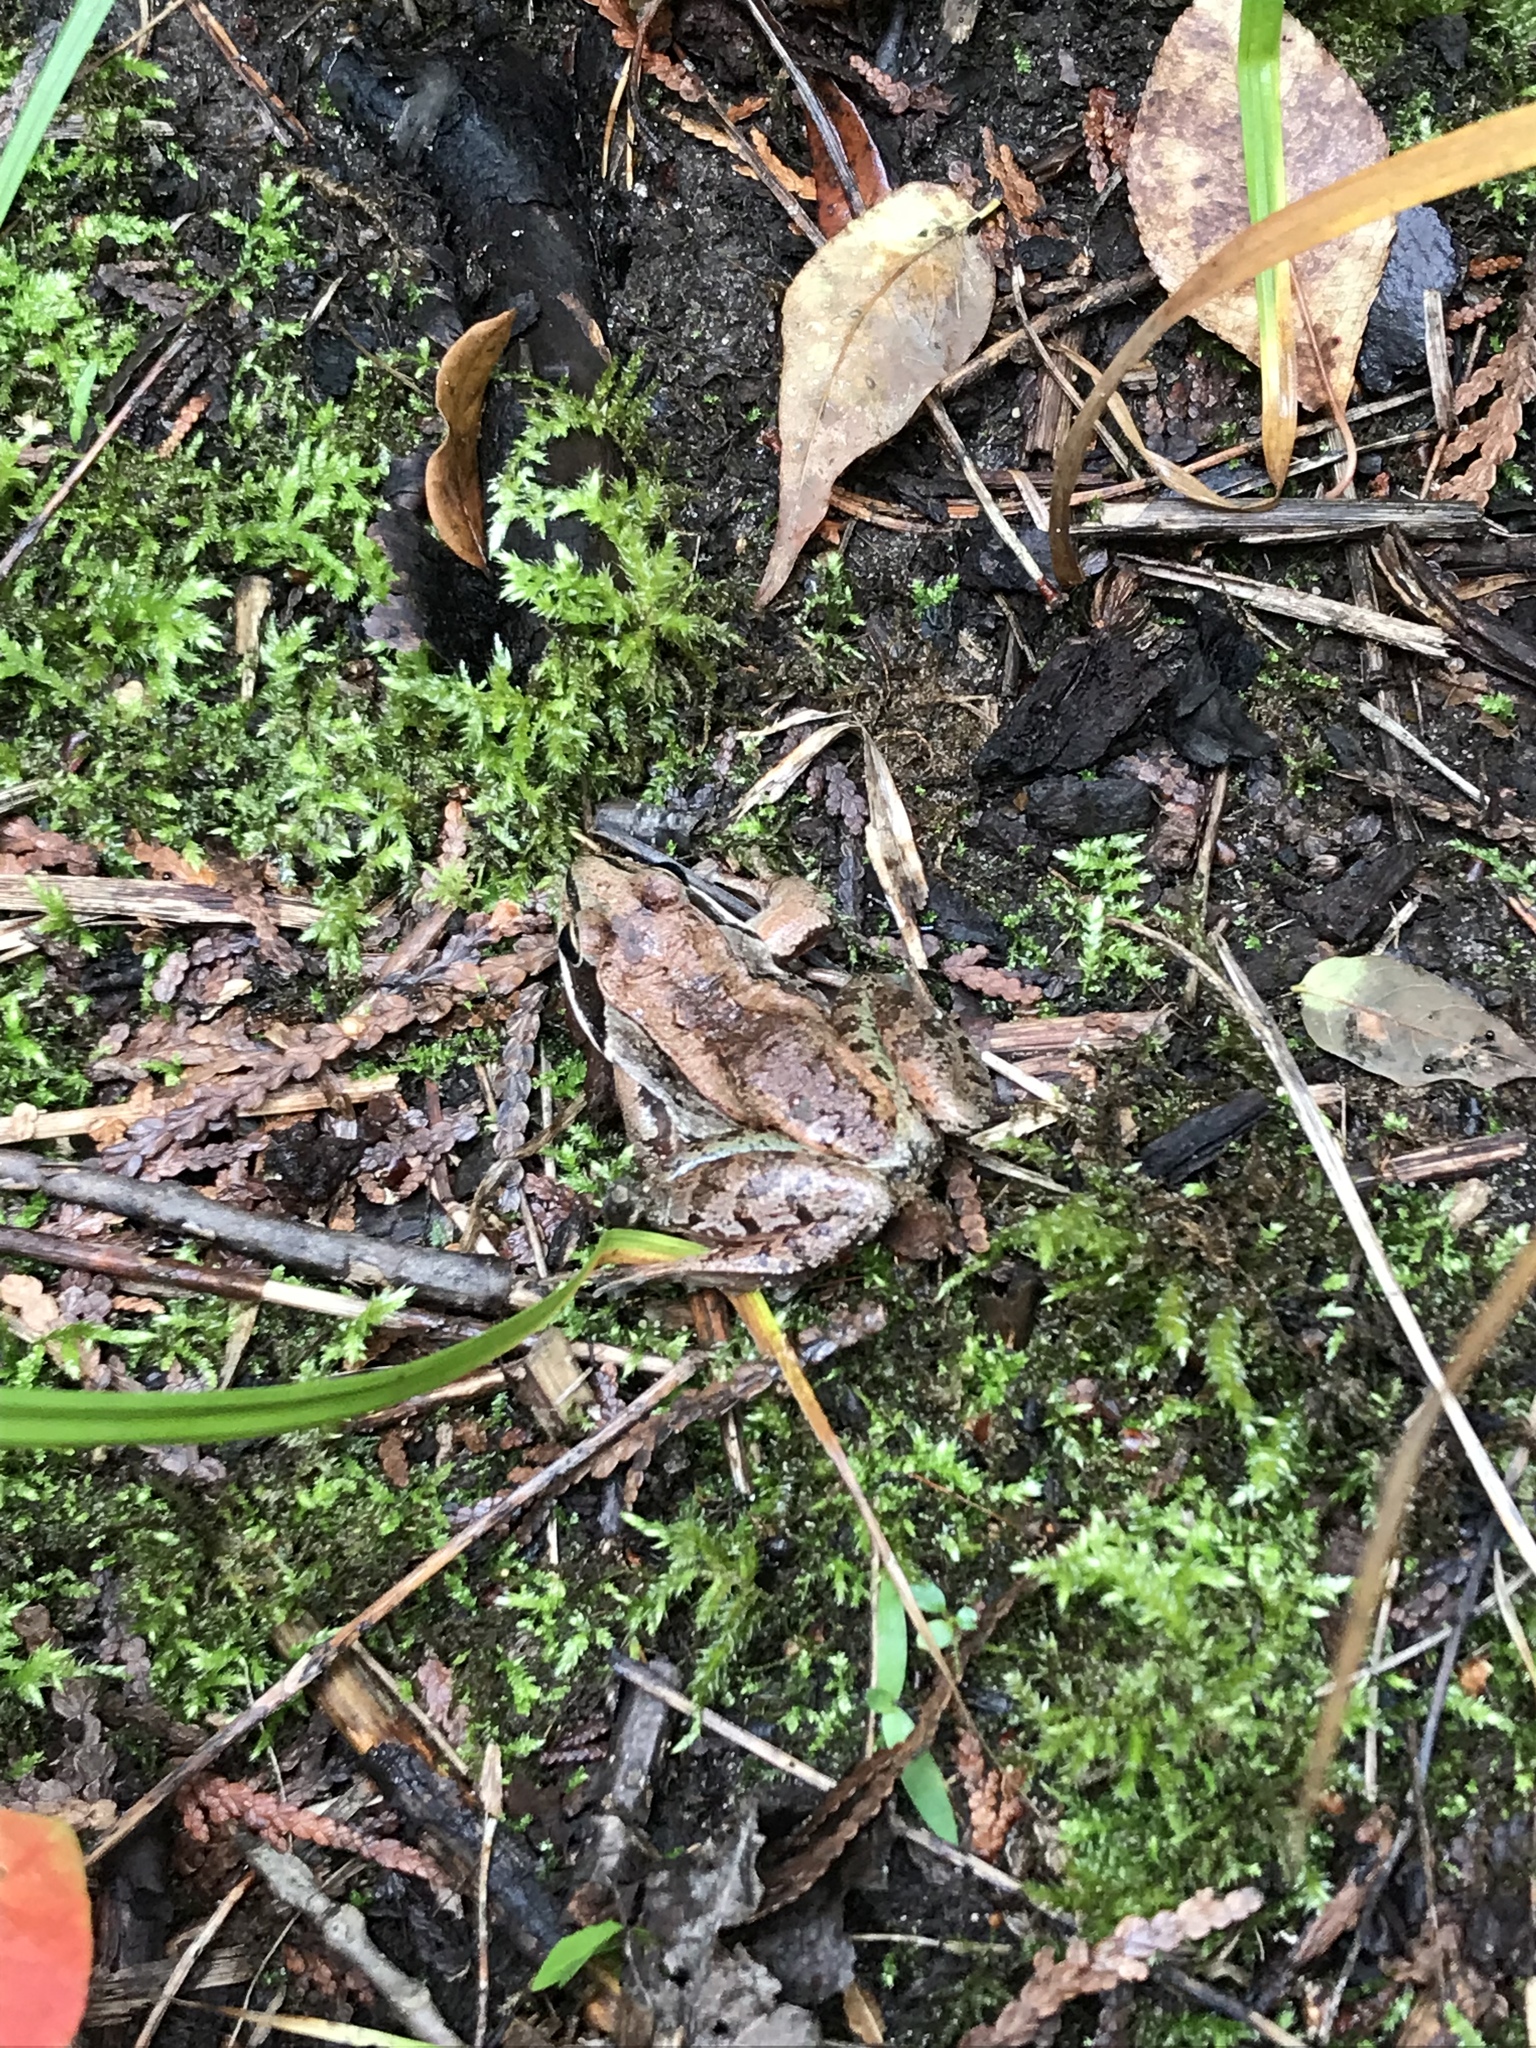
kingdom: Animalia
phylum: Chordata
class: Amphibia
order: Anura
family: Ranidae
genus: Lithobates
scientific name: Lithobates sylvaticus
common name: Wood frog
